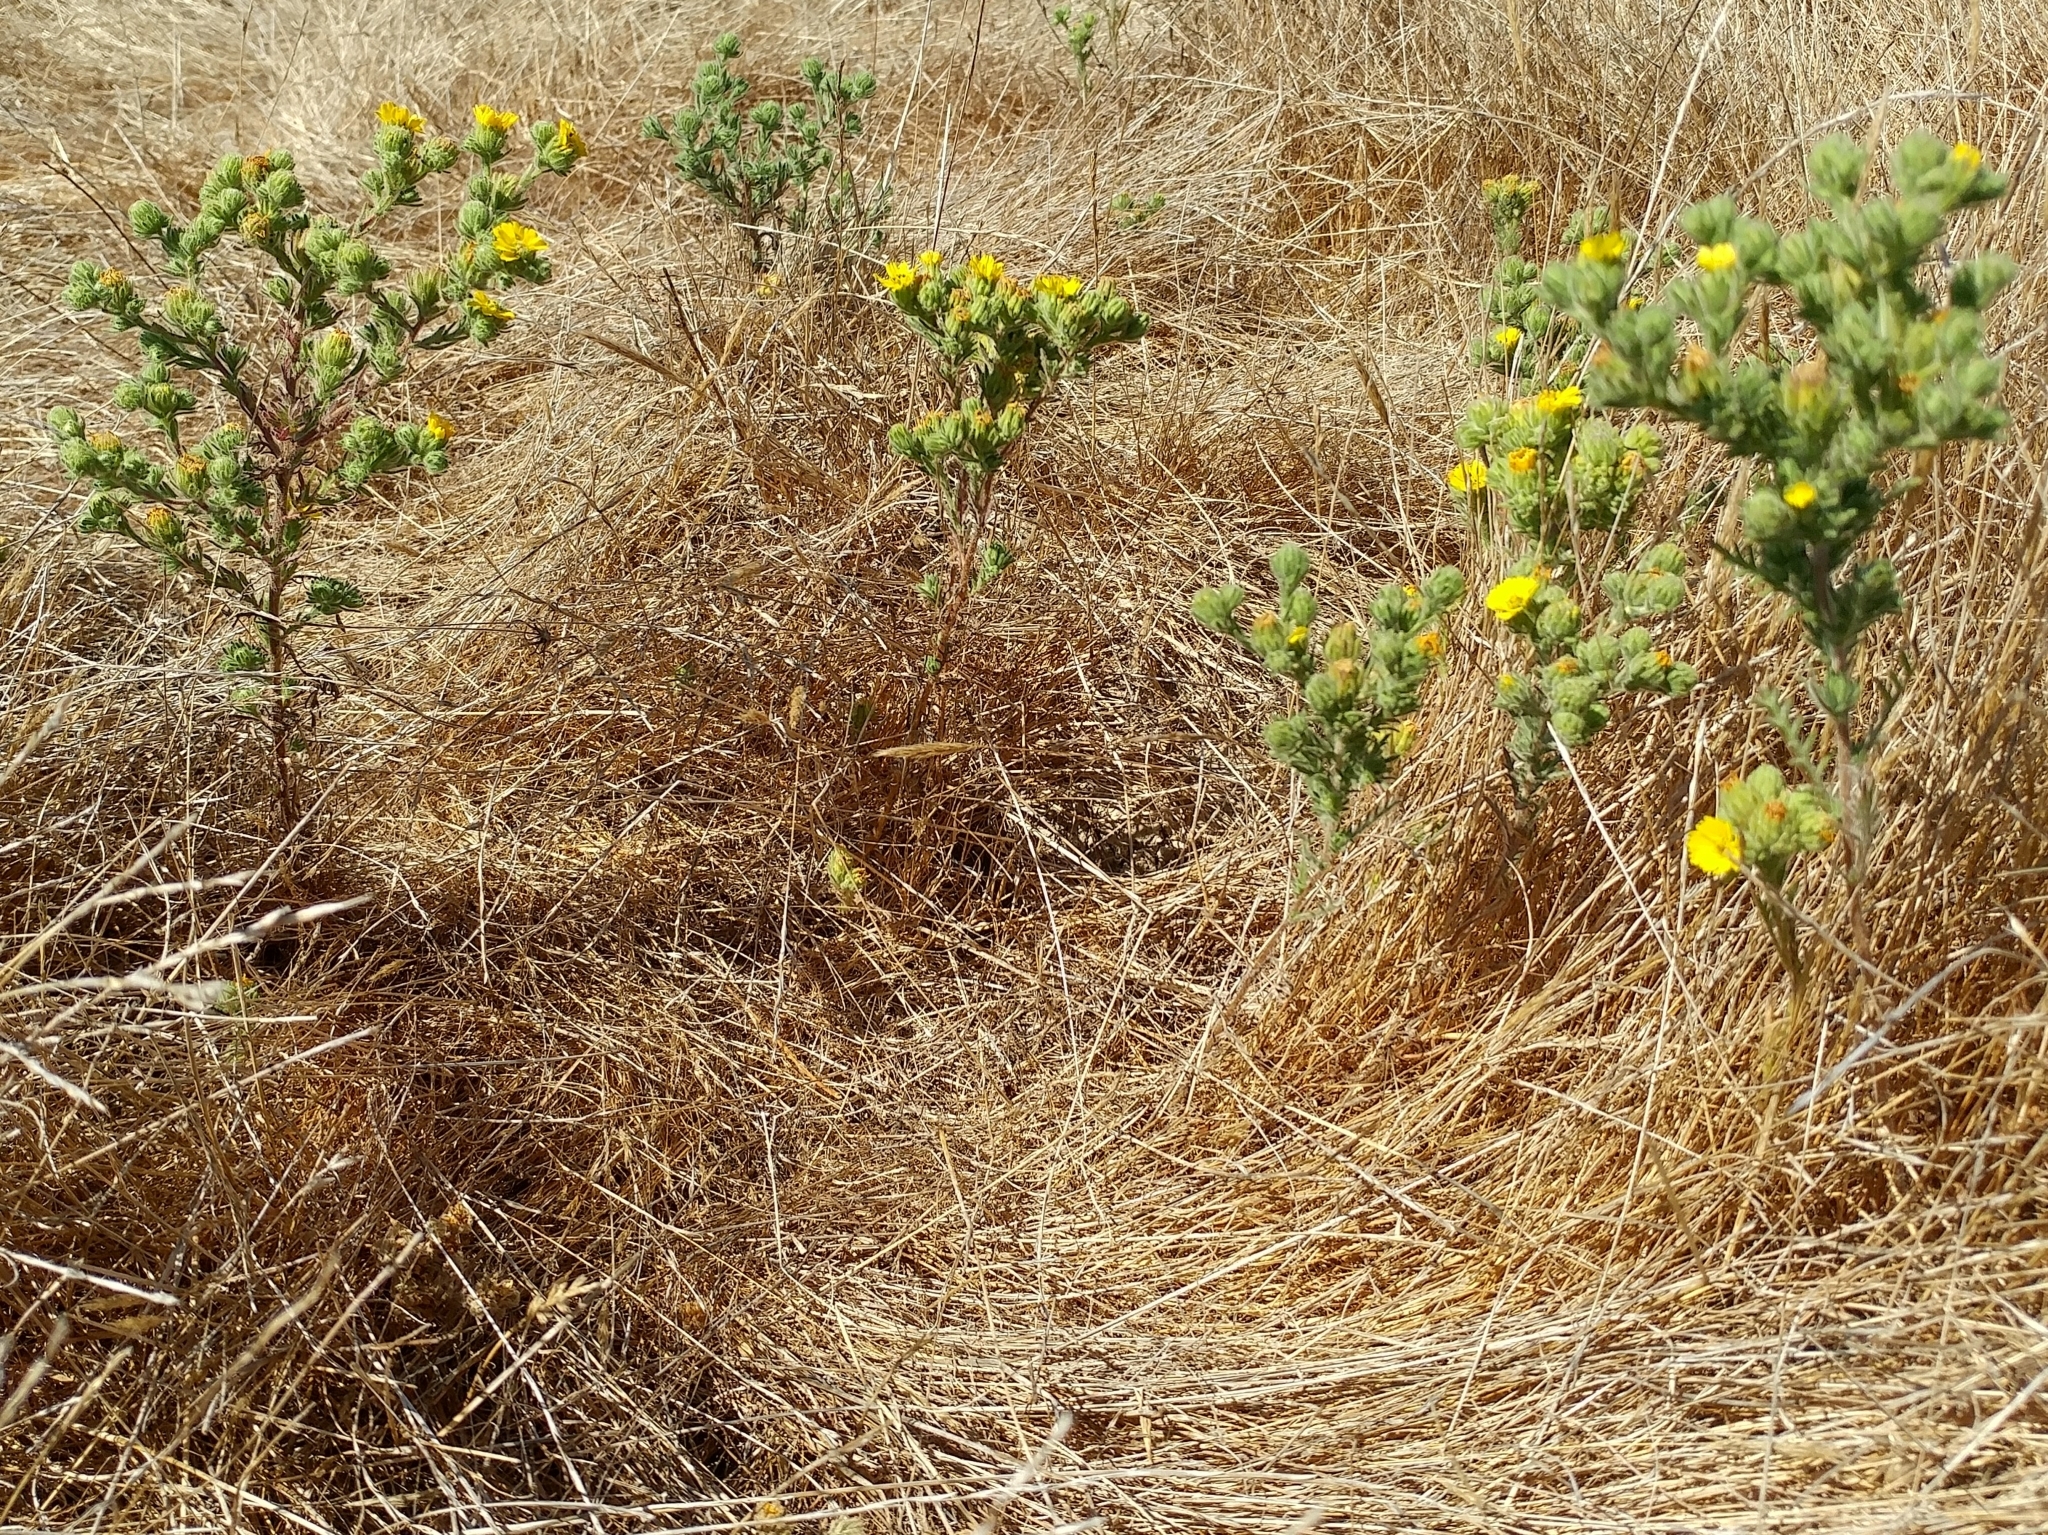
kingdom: Plantae
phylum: Tracheophyta
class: Magnoliopsida
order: Asterales
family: Asteraceae
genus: Deinandra
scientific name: Deinandra increscens
